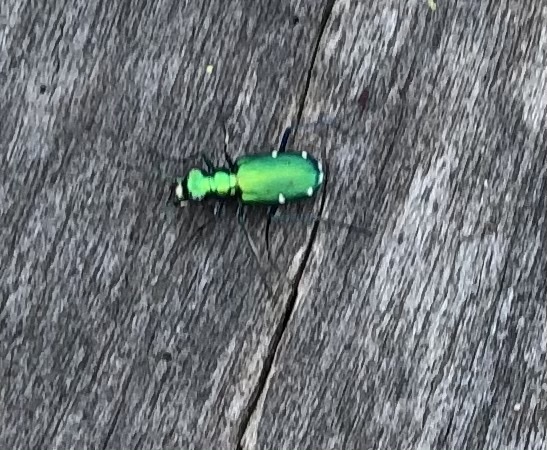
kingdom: Animalia
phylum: Arthropoda
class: Insecta
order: Coleoptera
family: Carabidae
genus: Cicindela
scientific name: Cicindela sexguttata
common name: Six-spotted tiger beetle
